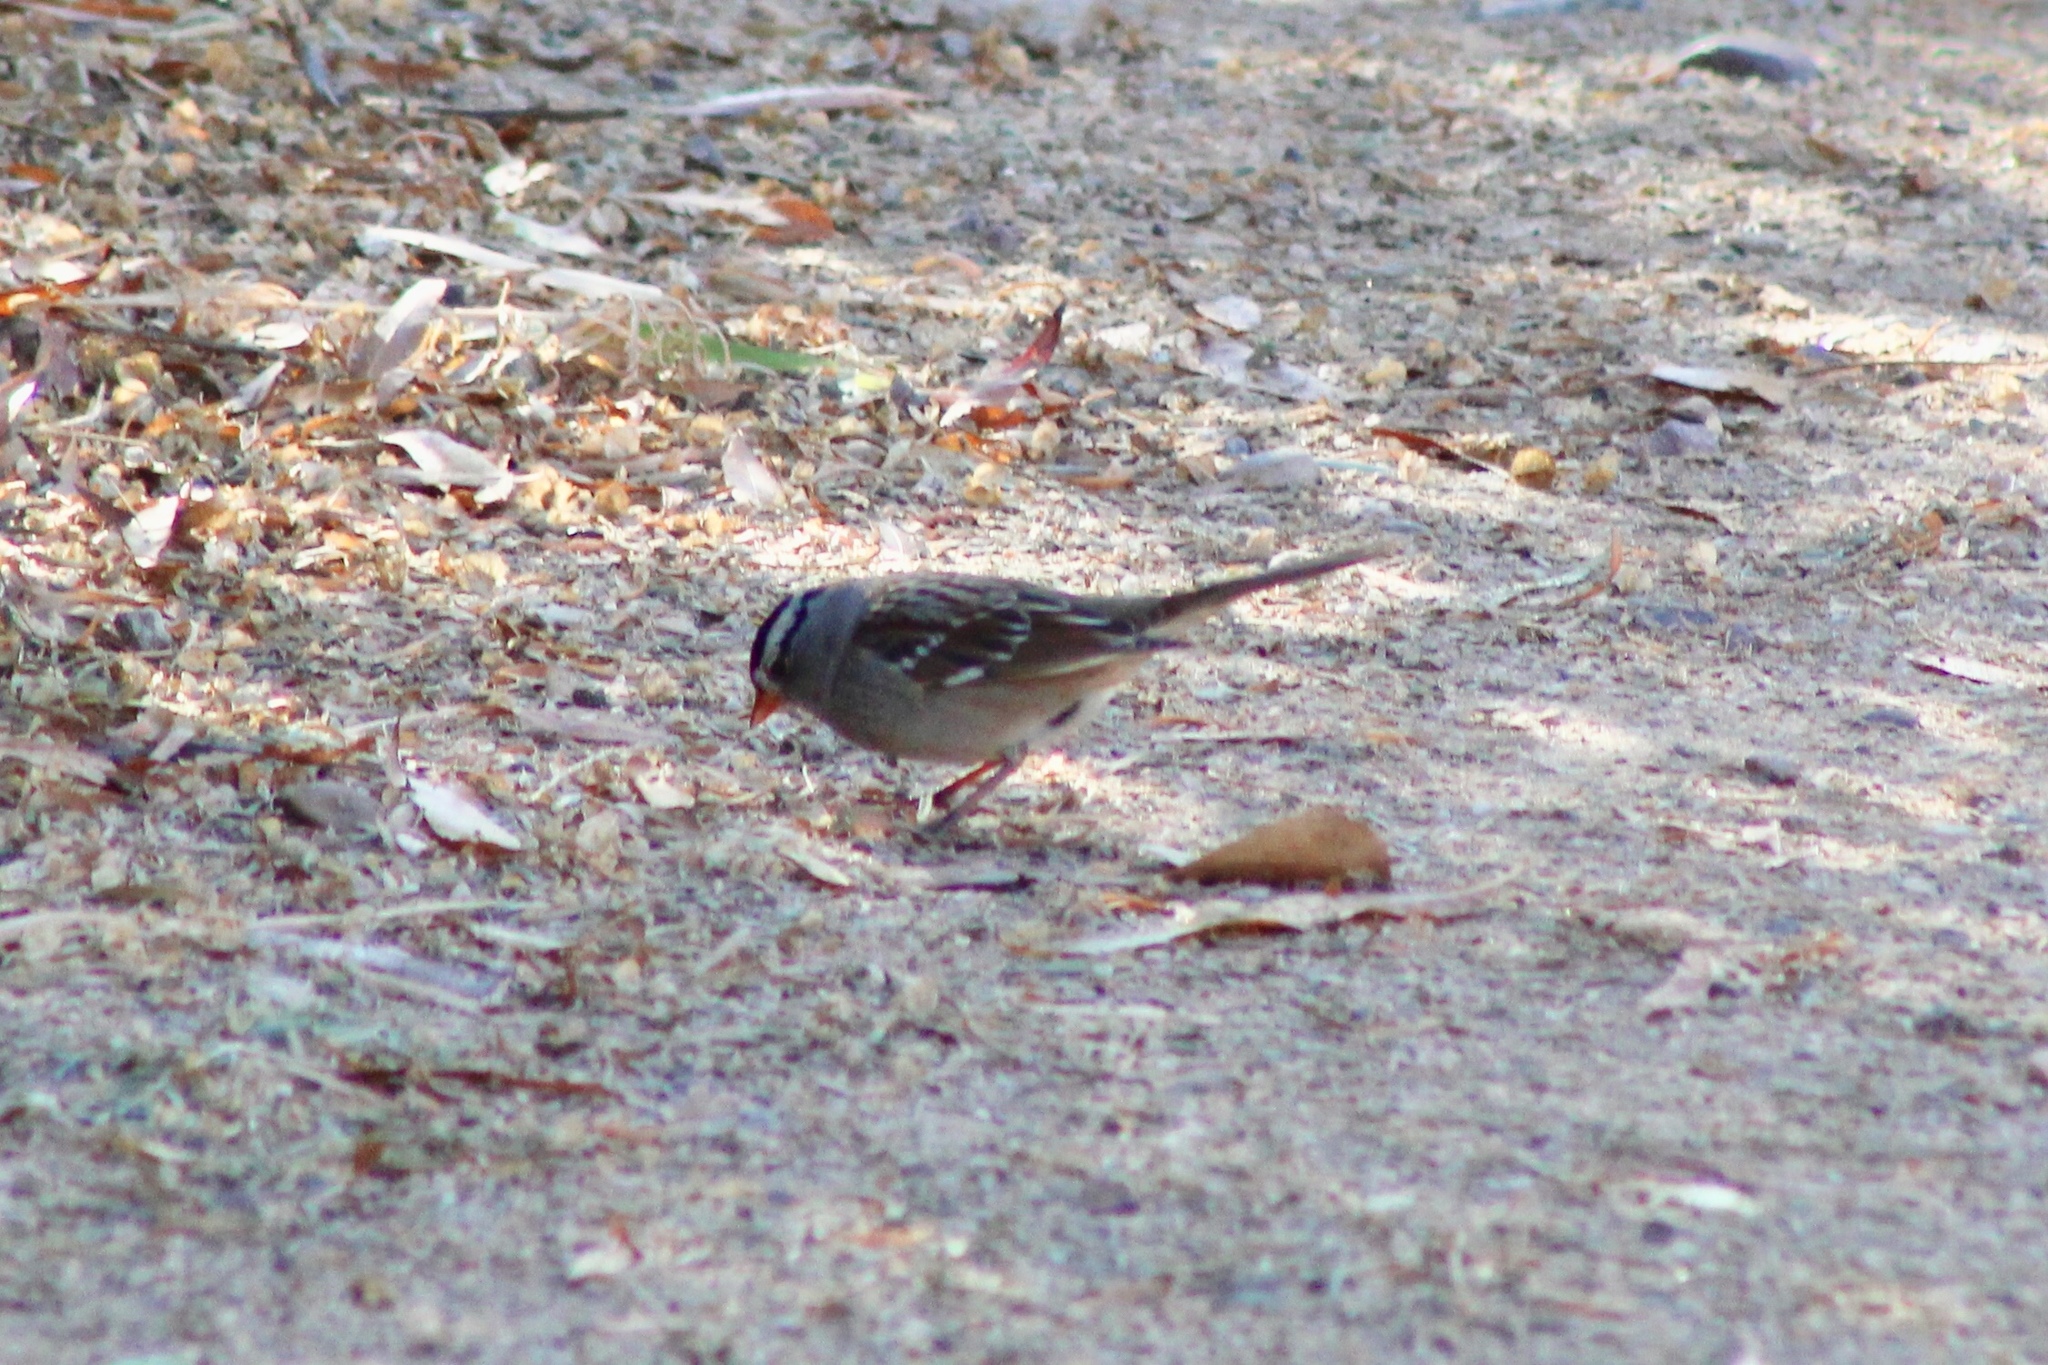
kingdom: Animalia
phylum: Chordata
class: Aves
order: Passeriformes
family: Passerellidae
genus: Zonotrichia
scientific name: Zonotrichia leucophrys
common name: White-crowned sparrow
